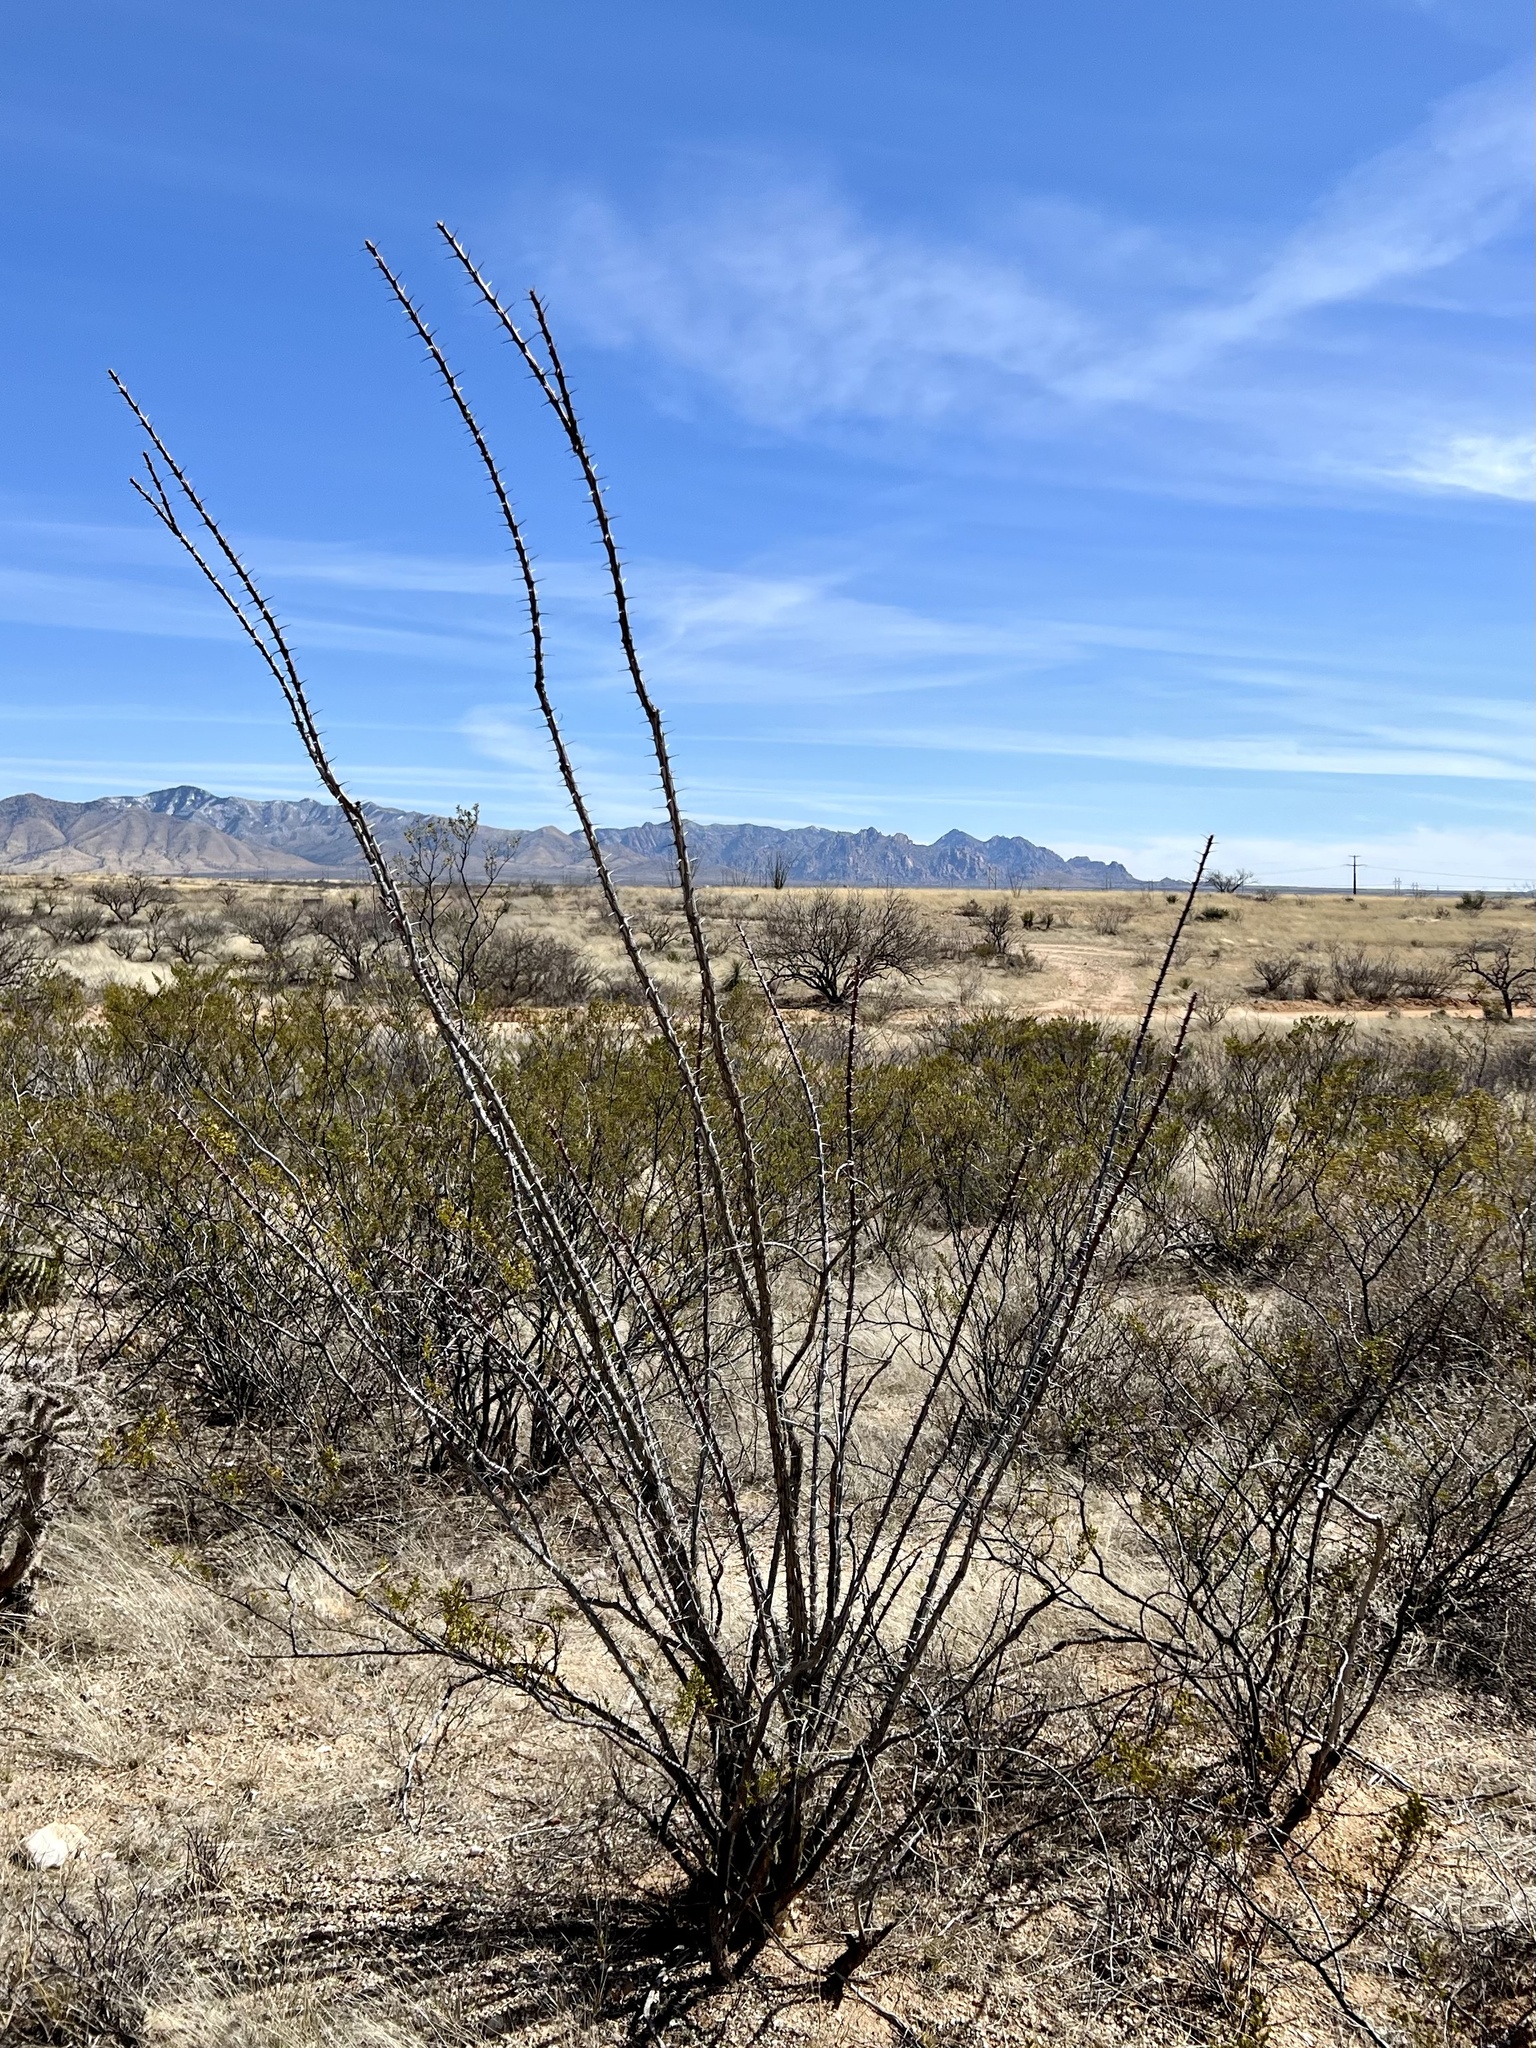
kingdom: Plantae
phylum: Tracheophyta
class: Magnoliopsida
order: Ericales
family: Fouquieriaceae
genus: Fouquieria
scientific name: Fouquieria splendens
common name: Vine-cactus
